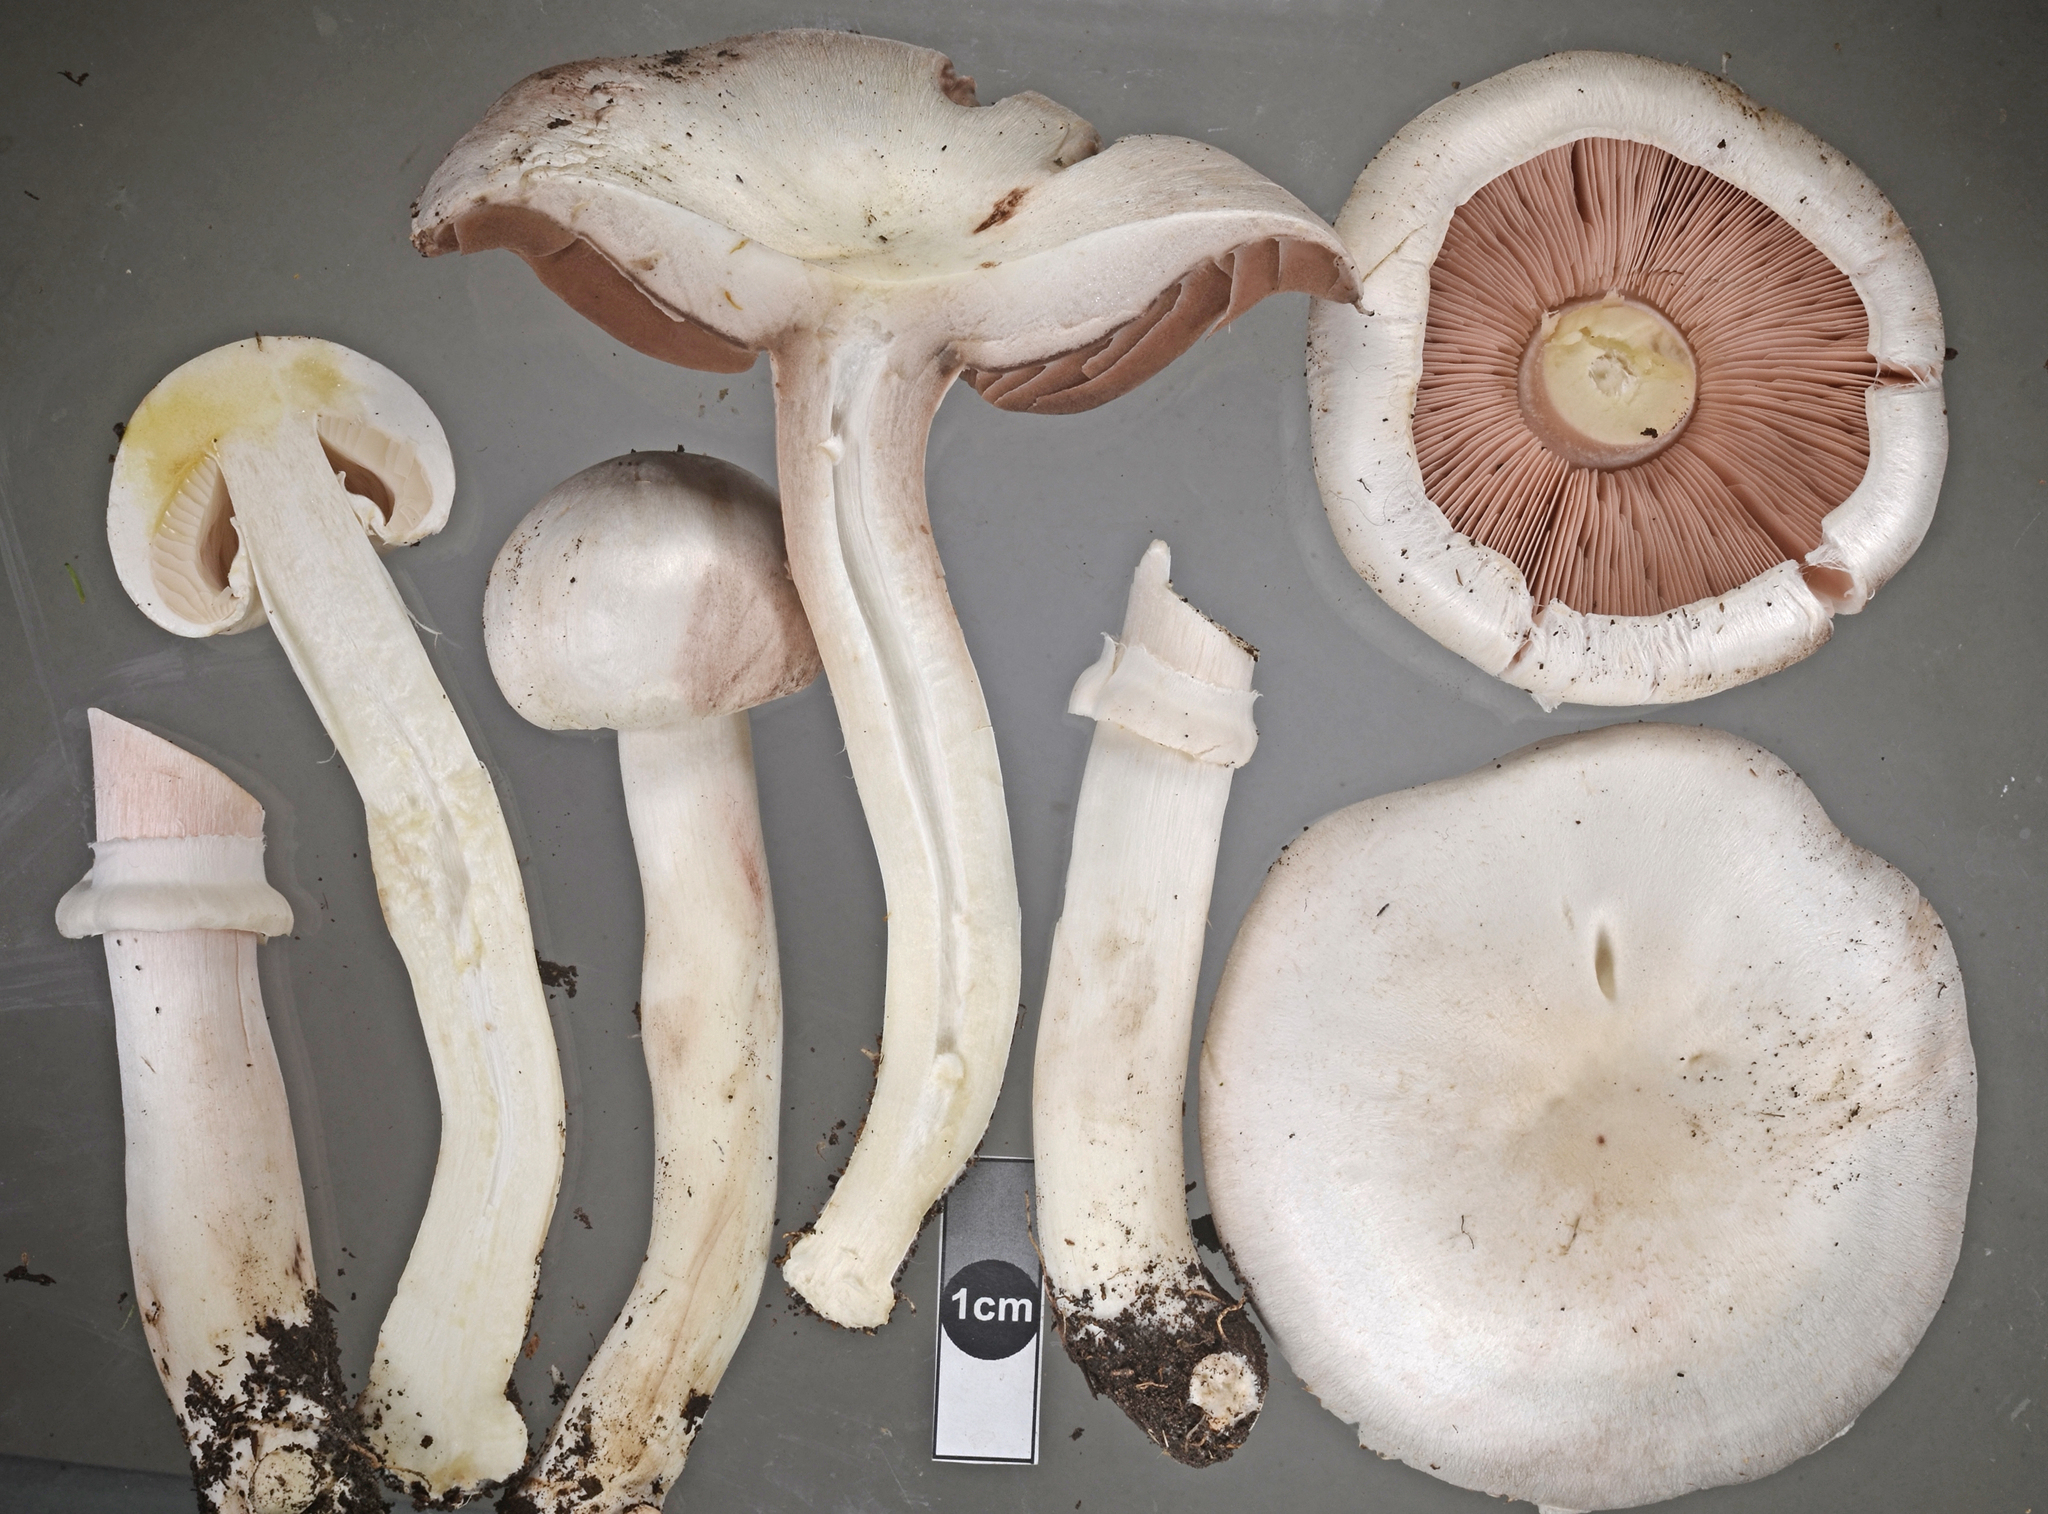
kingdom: Fungi
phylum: Basidiomycota
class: Agaricomycetes
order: Agaricales
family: Agaricaceae
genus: Agaricus
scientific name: Agaricus californicus
